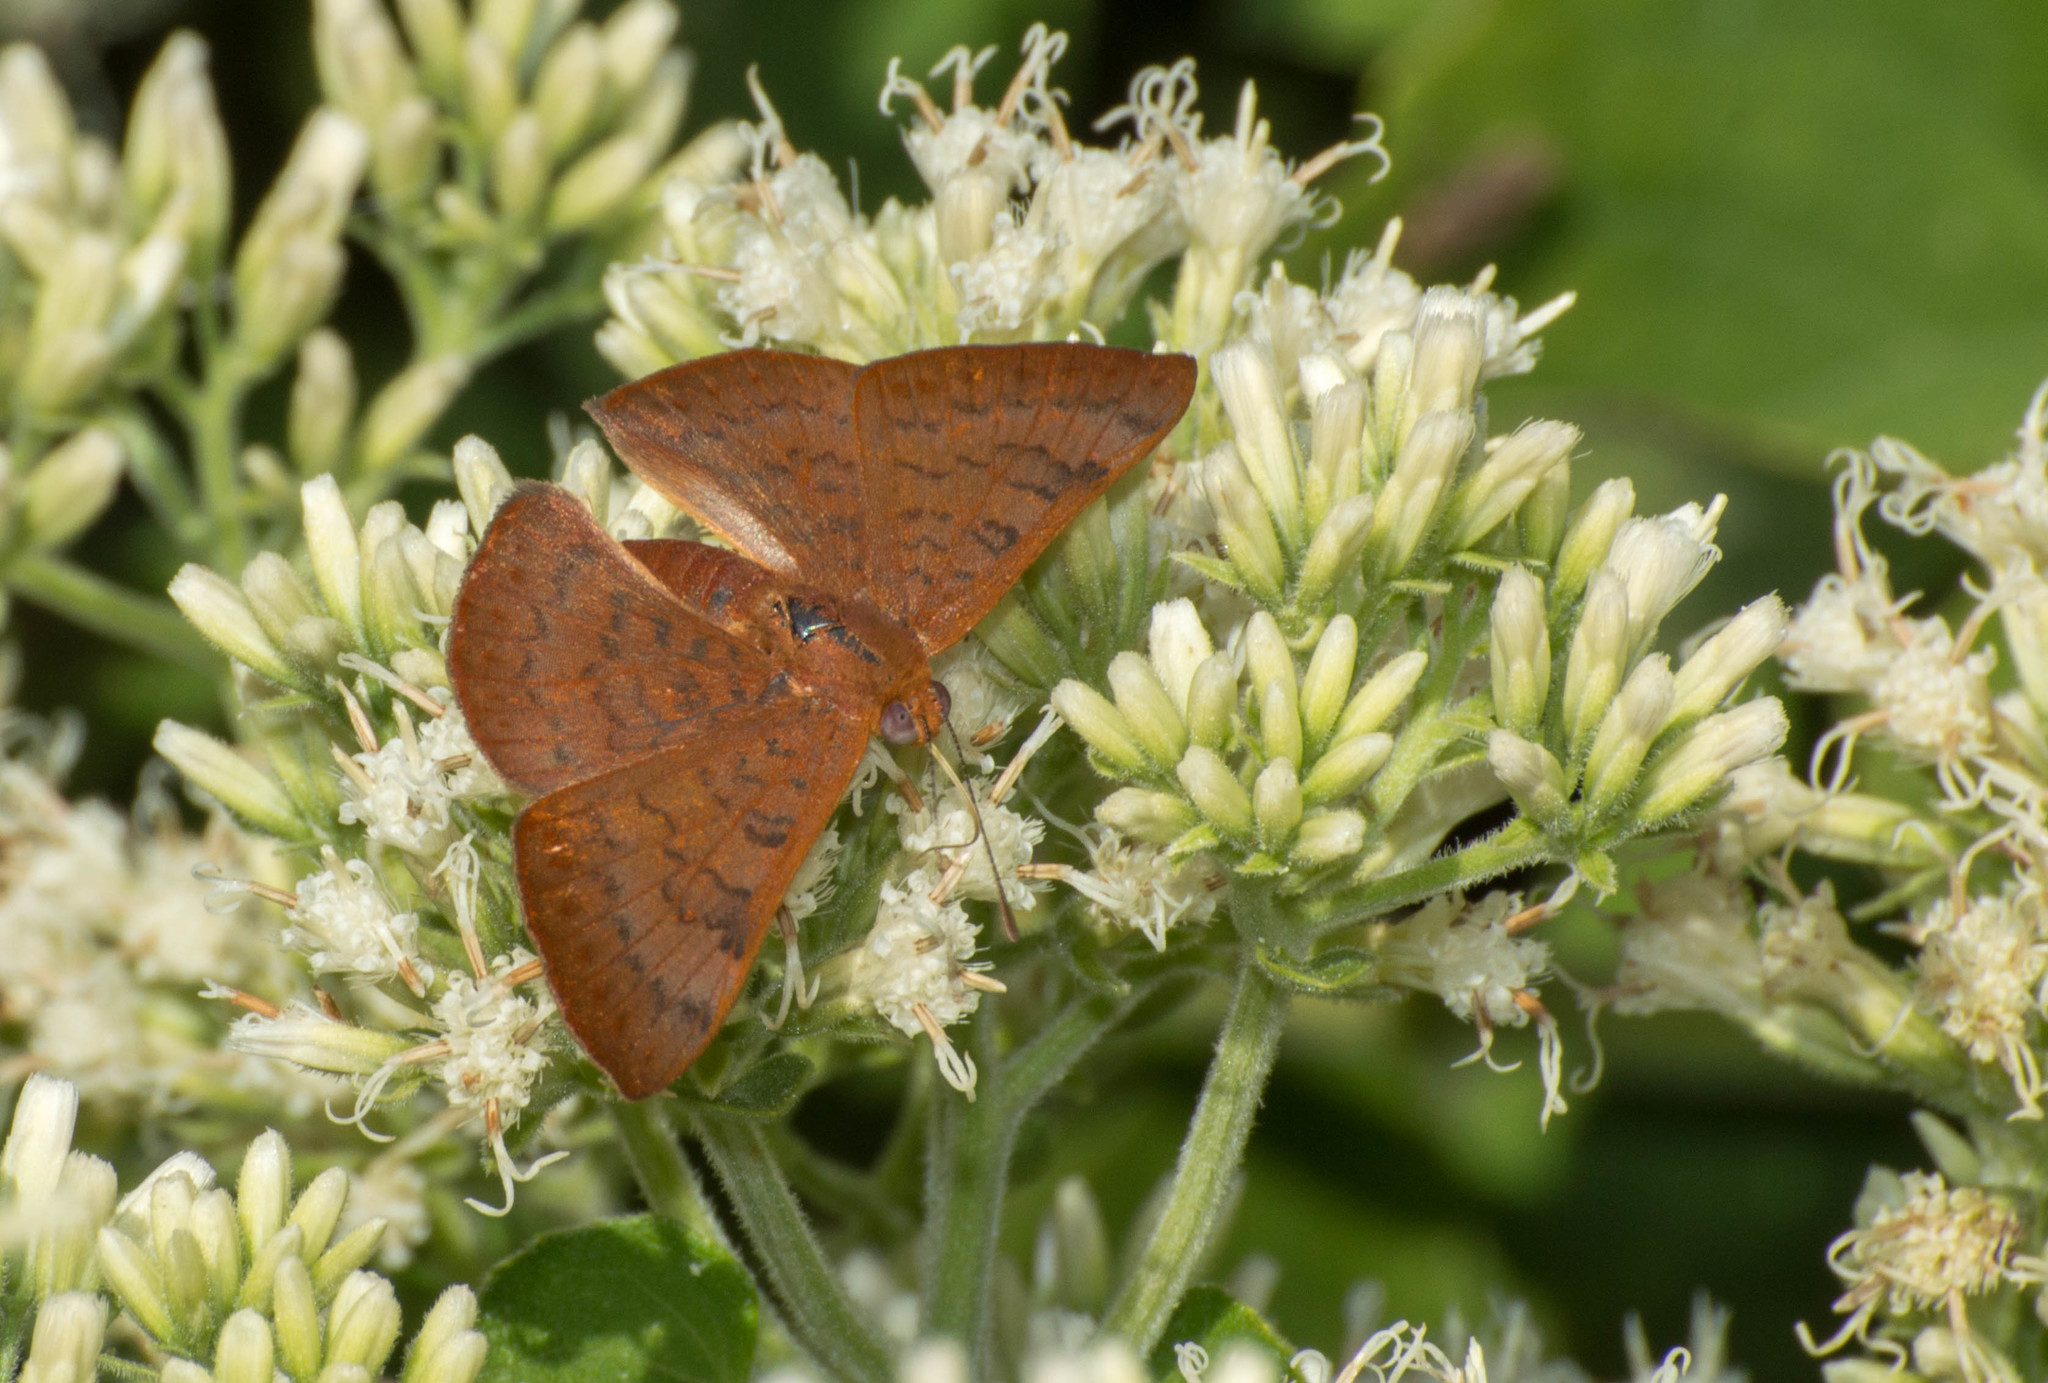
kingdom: Animalia
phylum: Arthropoda
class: Insecta
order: Lepidoptera
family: Lycaenidae
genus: Emesis
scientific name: Emesis russula
